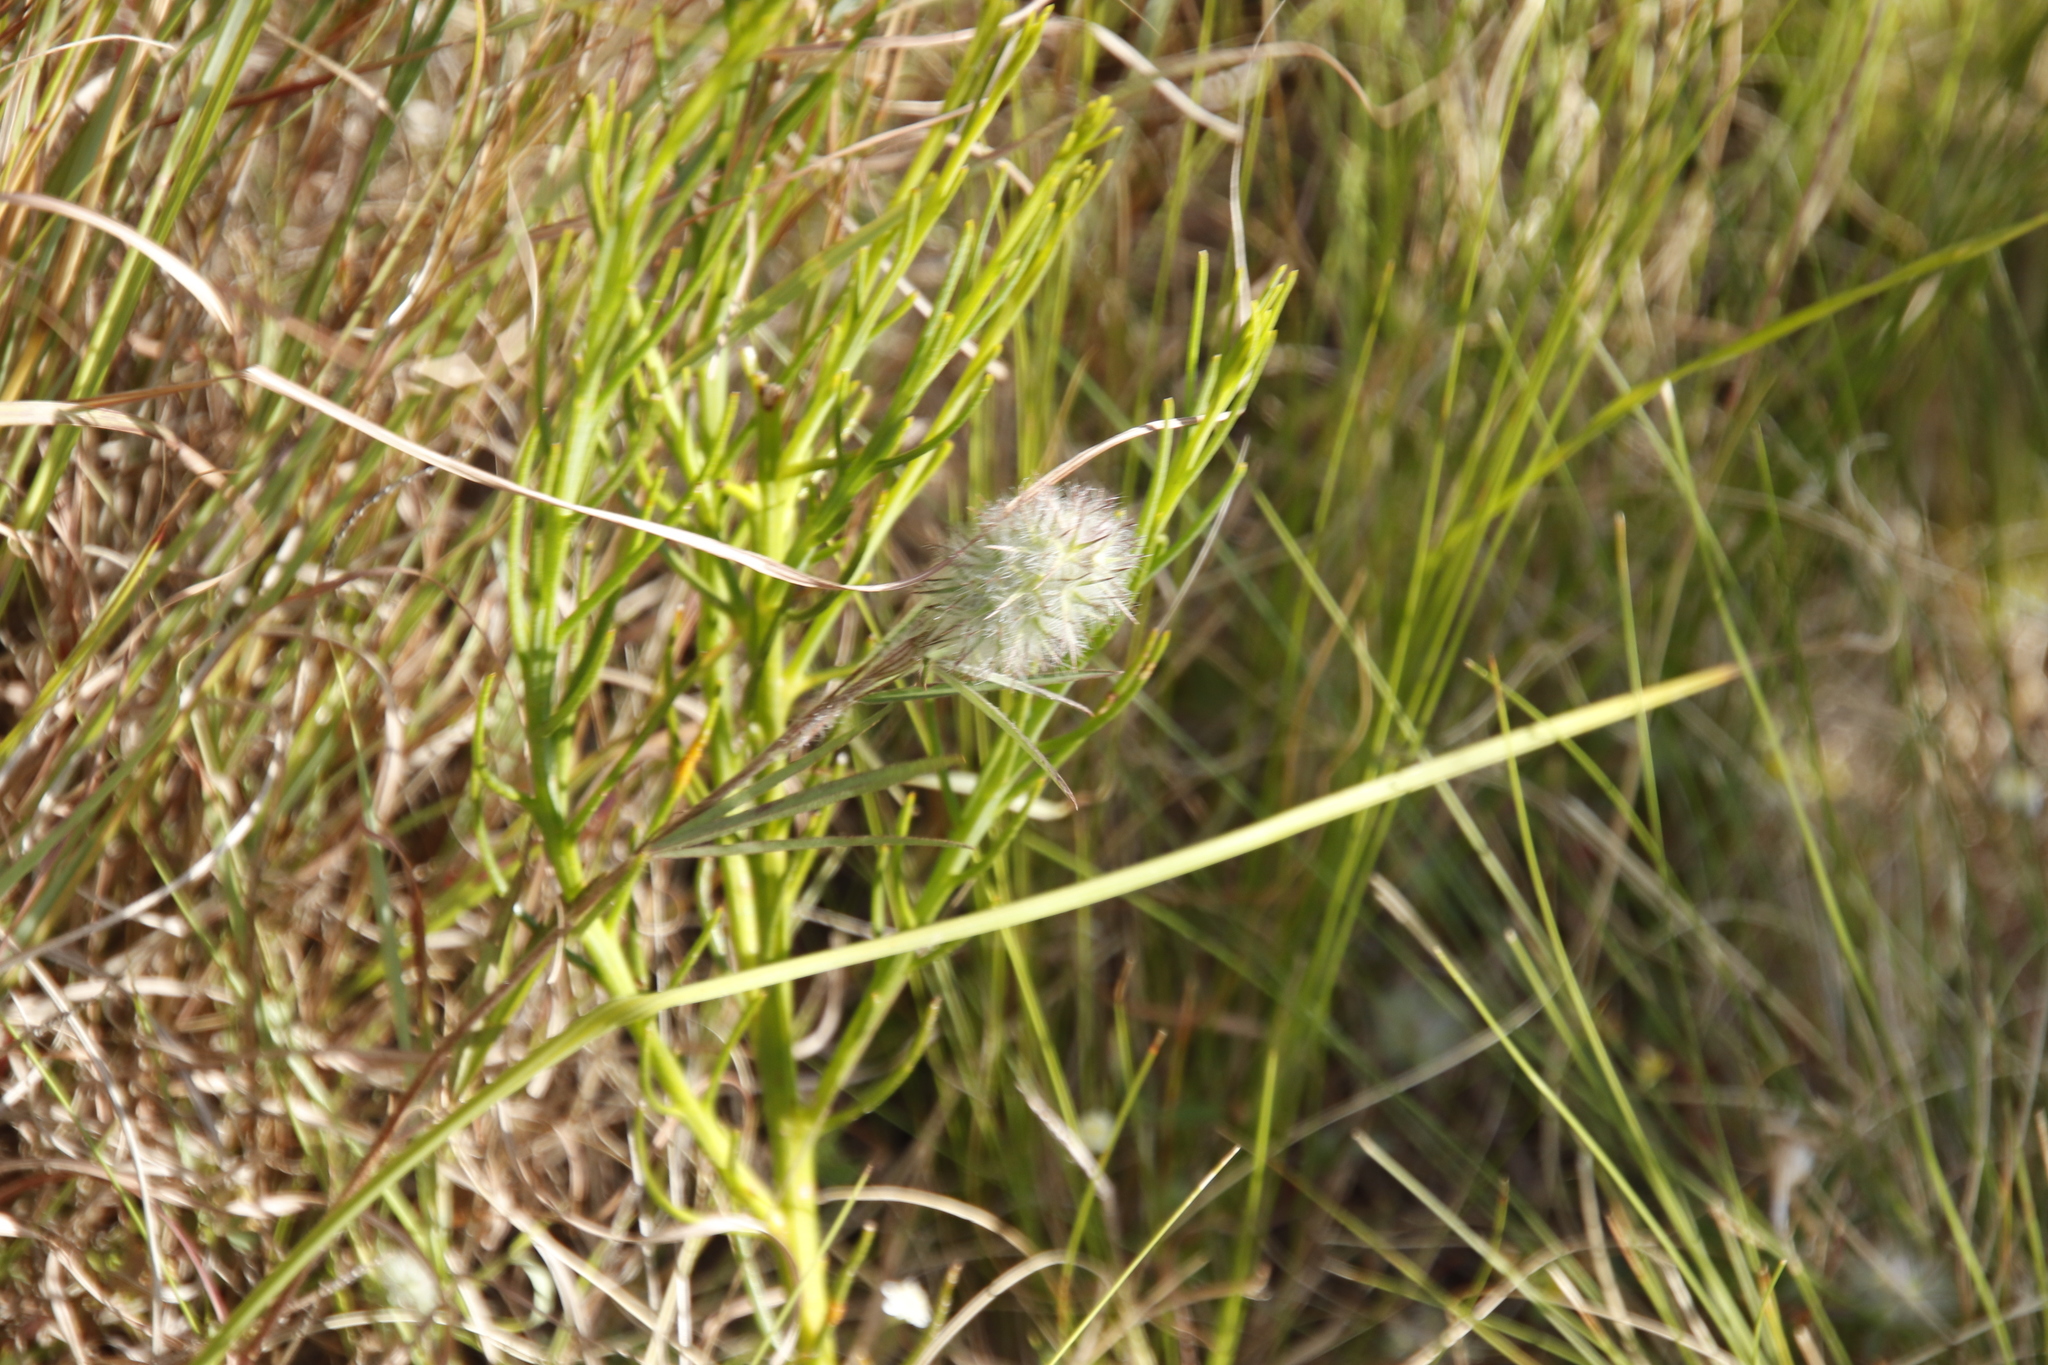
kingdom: Plantae
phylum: Tracheophyta
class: Magnoliopsida
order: Fabales
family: Fabaceae
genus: Trifolium
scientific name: Trifolium angustifolium
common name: Narrow clover
